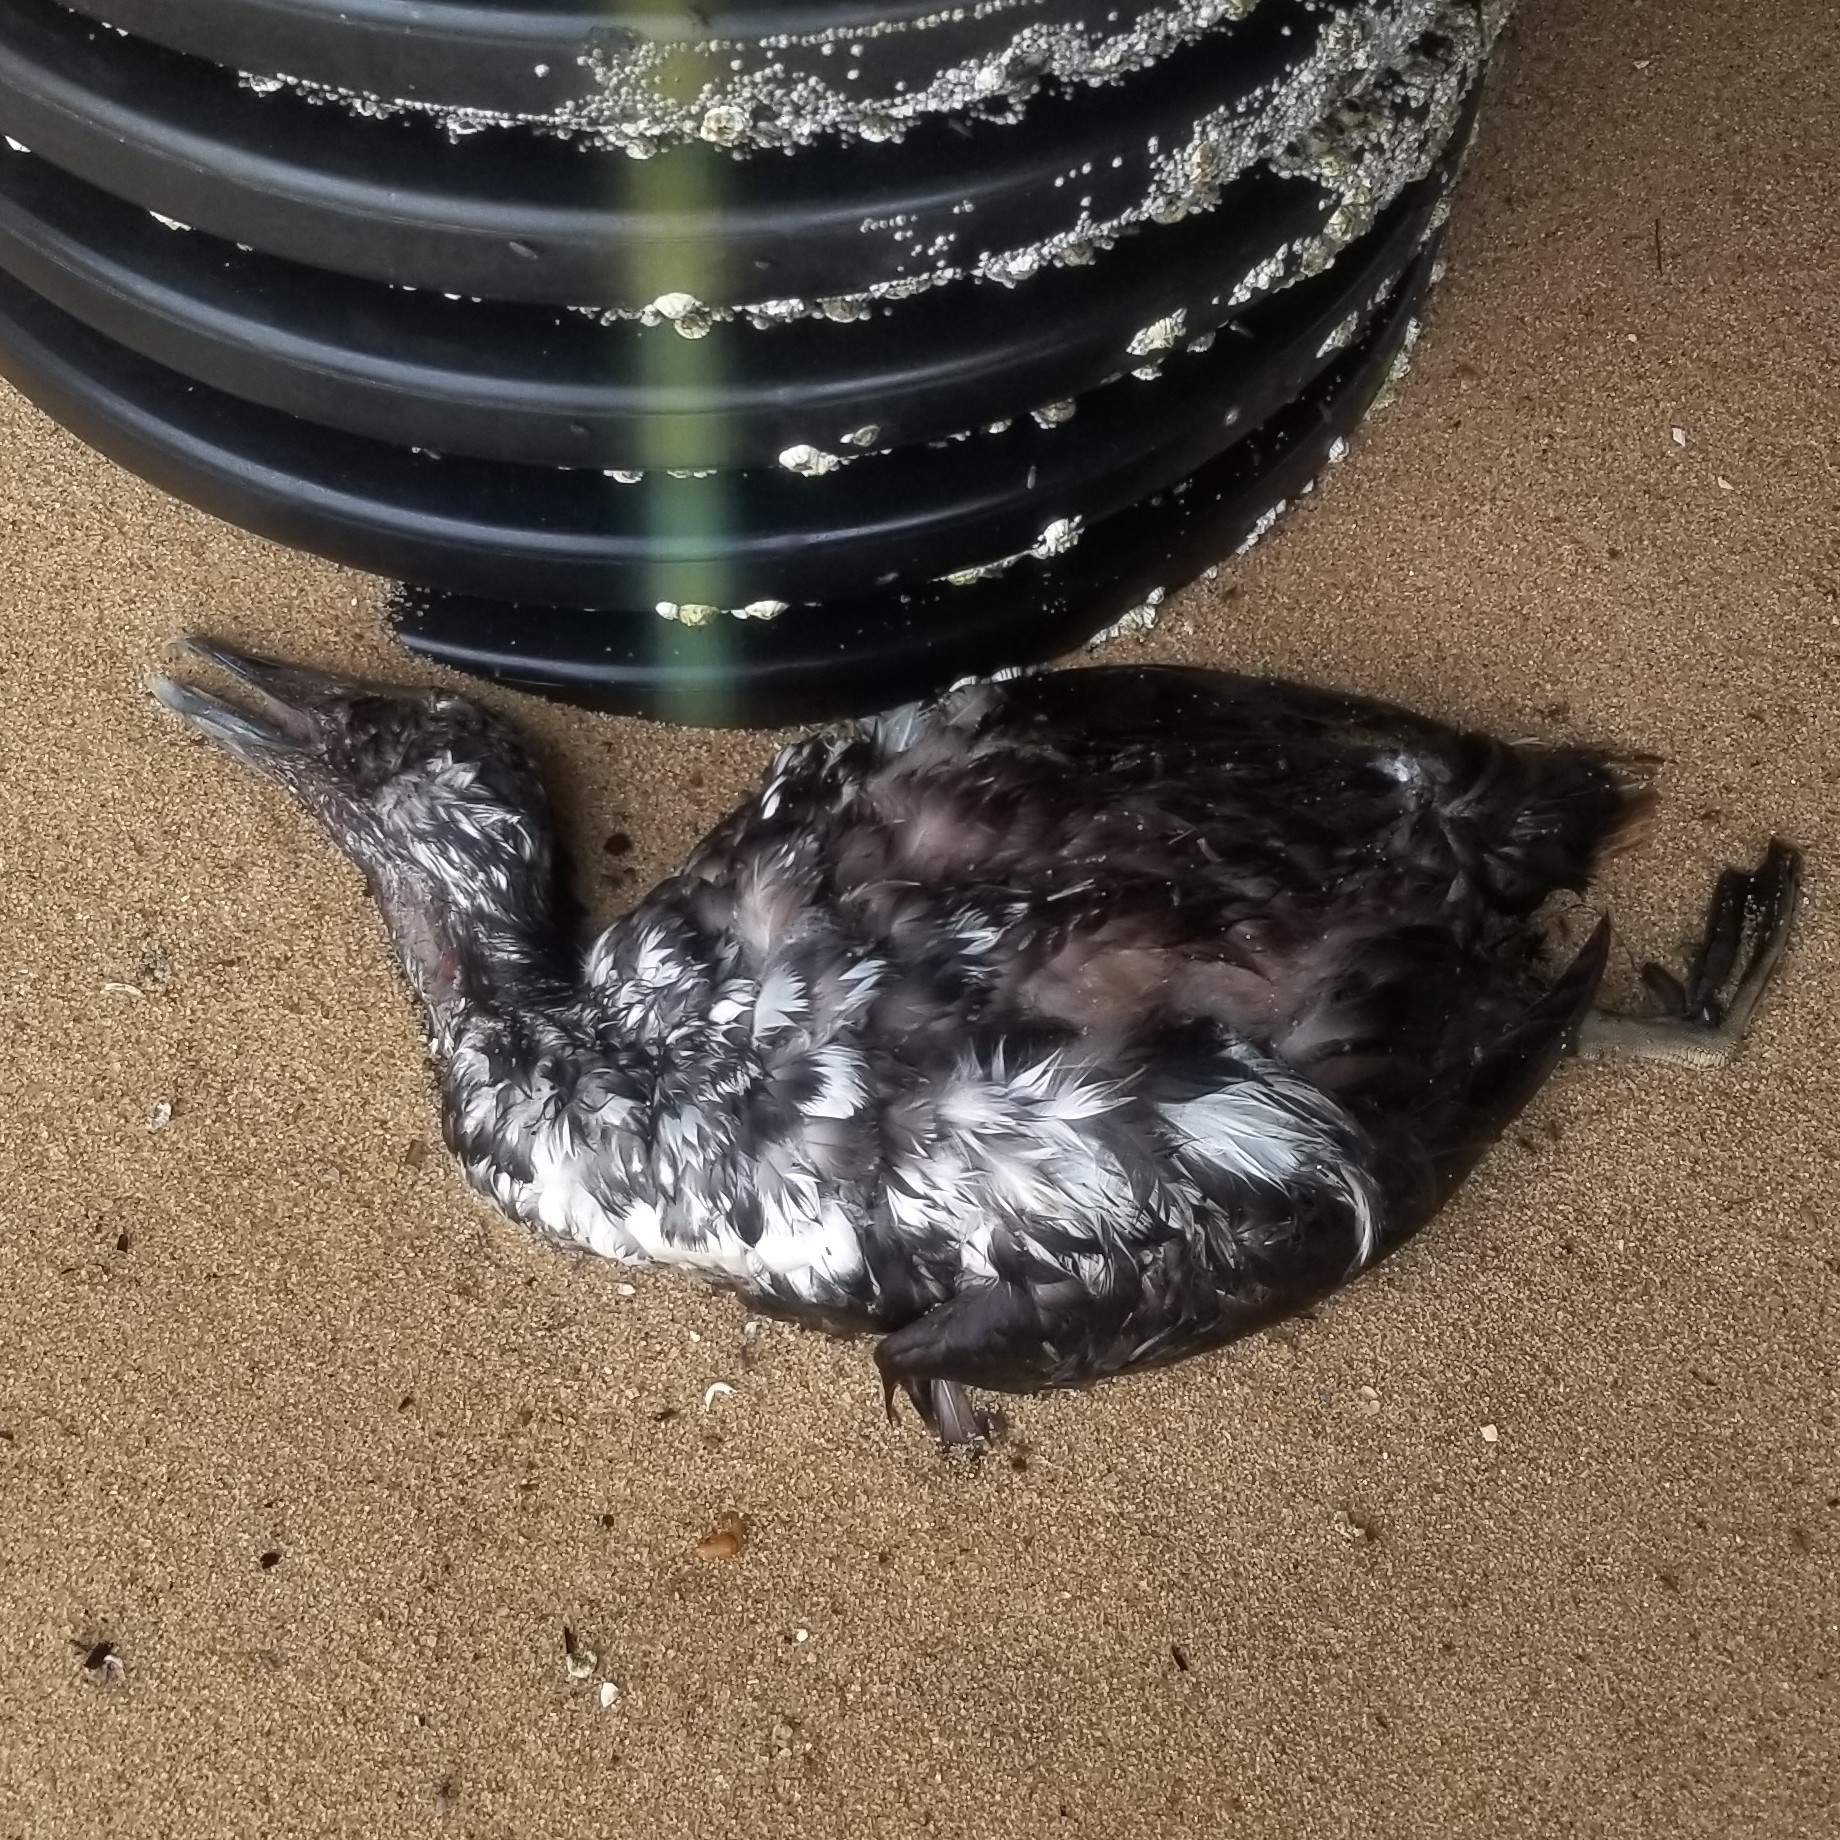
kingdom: Animalia
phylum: Chordata
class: Aves
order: Anseriformes
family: Anatidae
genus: Somateria
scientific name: Somateria mollissima
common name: Common eider
